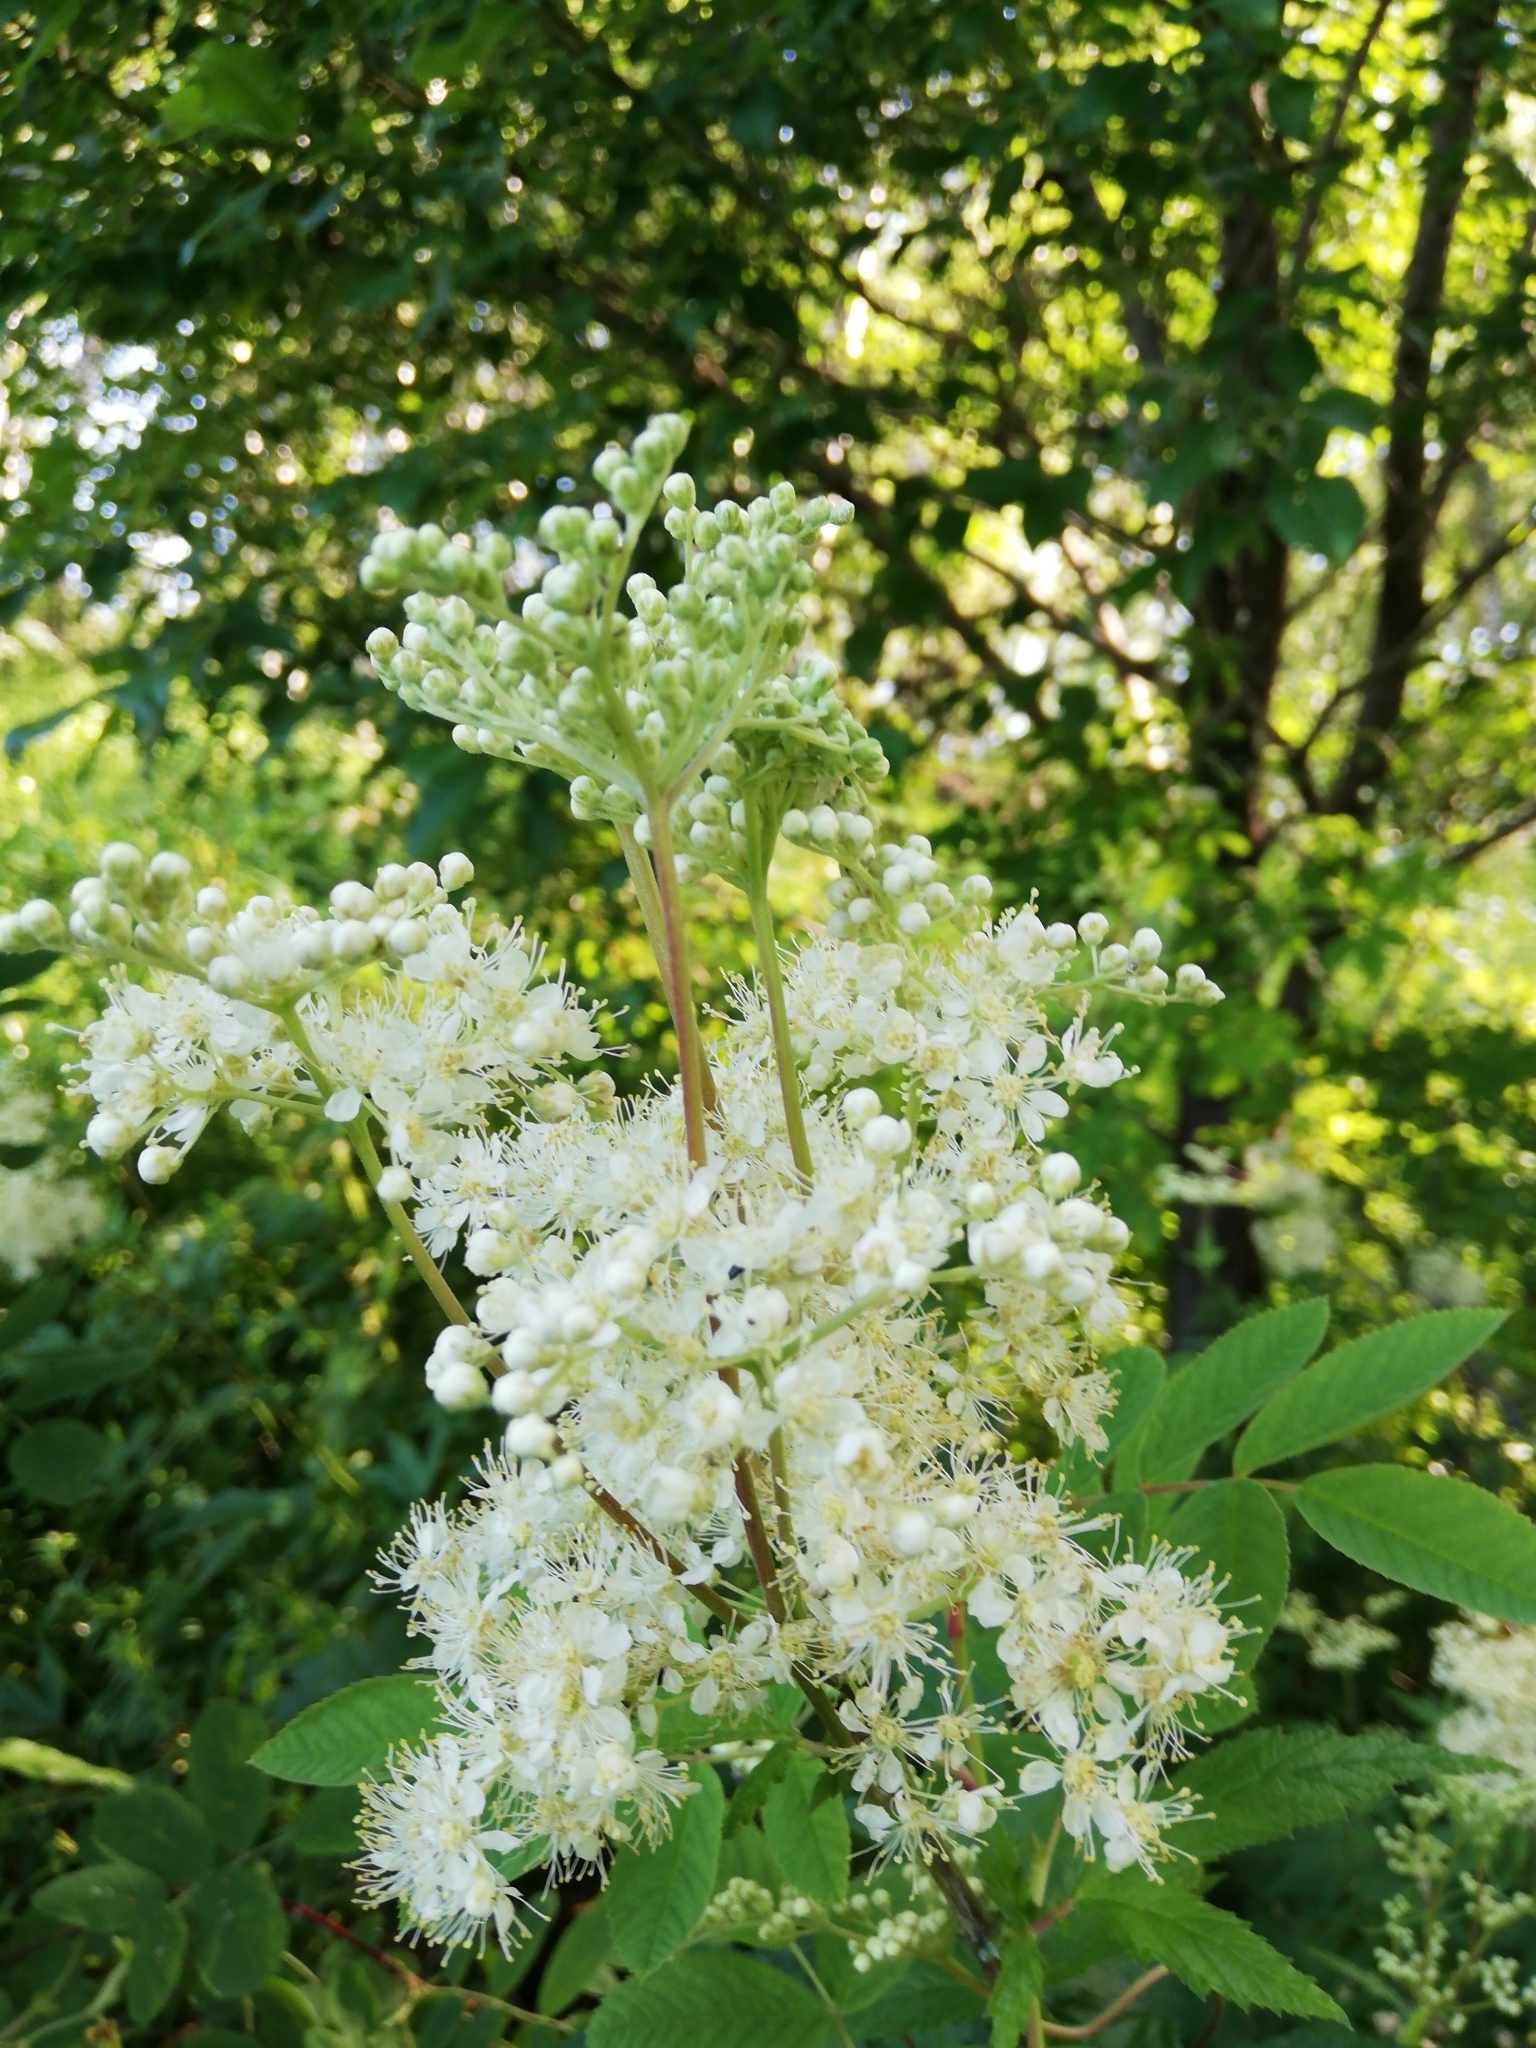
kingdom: Plantae
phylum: Tracheophyta
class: Magnoliopsida
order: Rosales
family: Rosaceae
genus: Filipendula
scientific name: Filipendula ulmaria
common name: Meadowsweet
